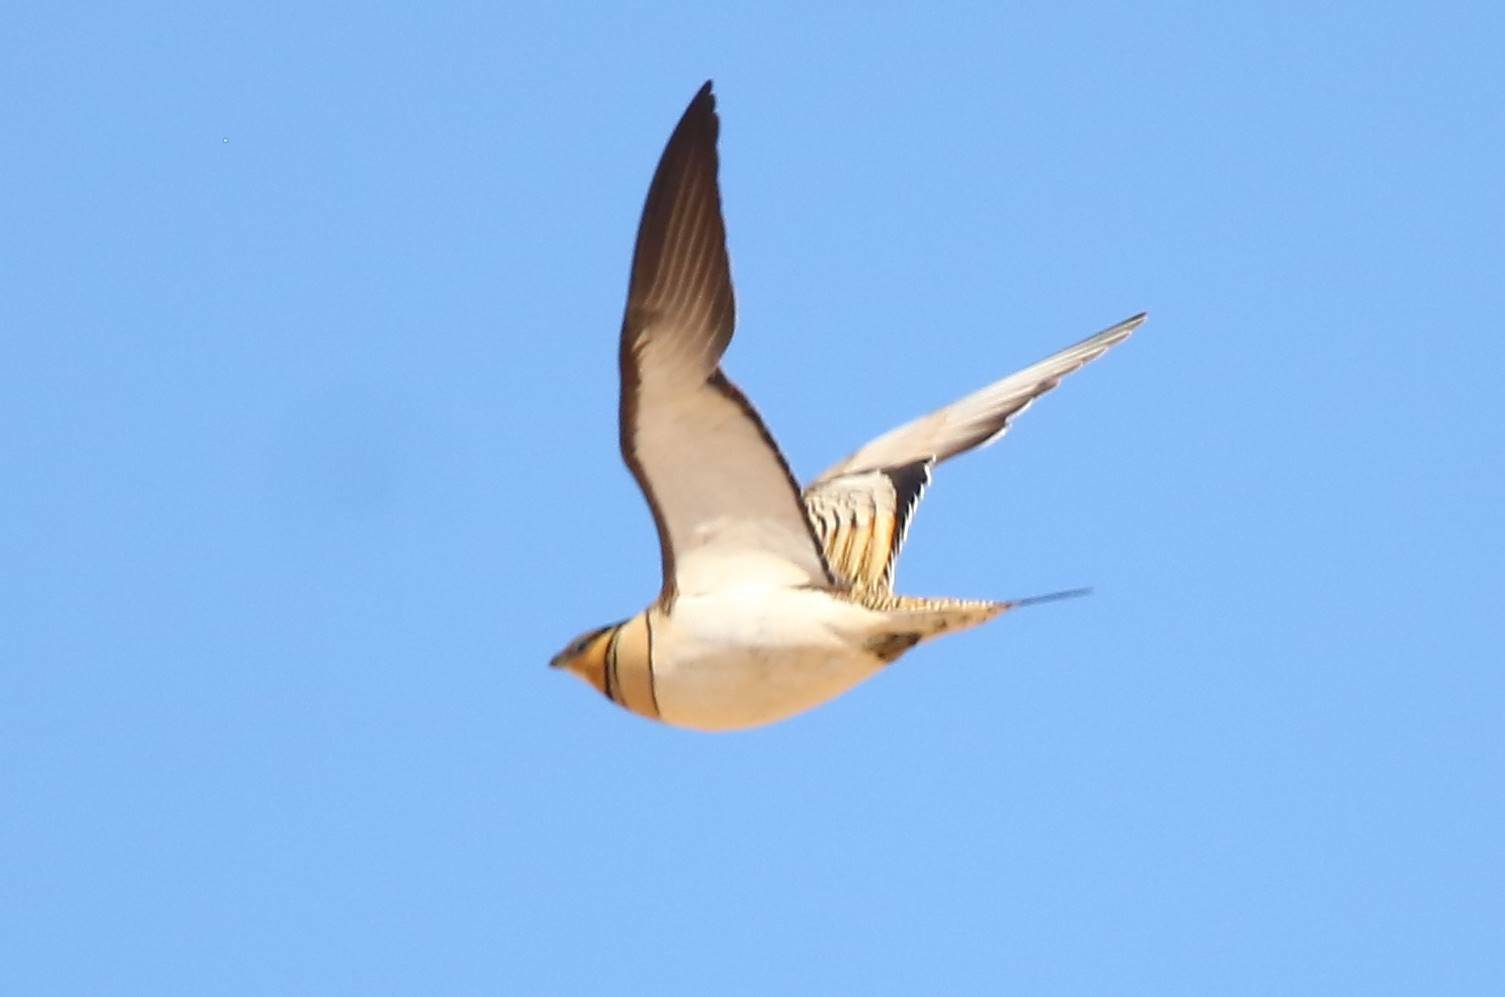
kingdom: Animalia
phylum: Chordata
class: Aves
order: Pteroclidiformes
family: Pteroclididae
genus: Pterocles
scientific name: Pterocles alchata
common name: Pin-tailed sandgrouse
